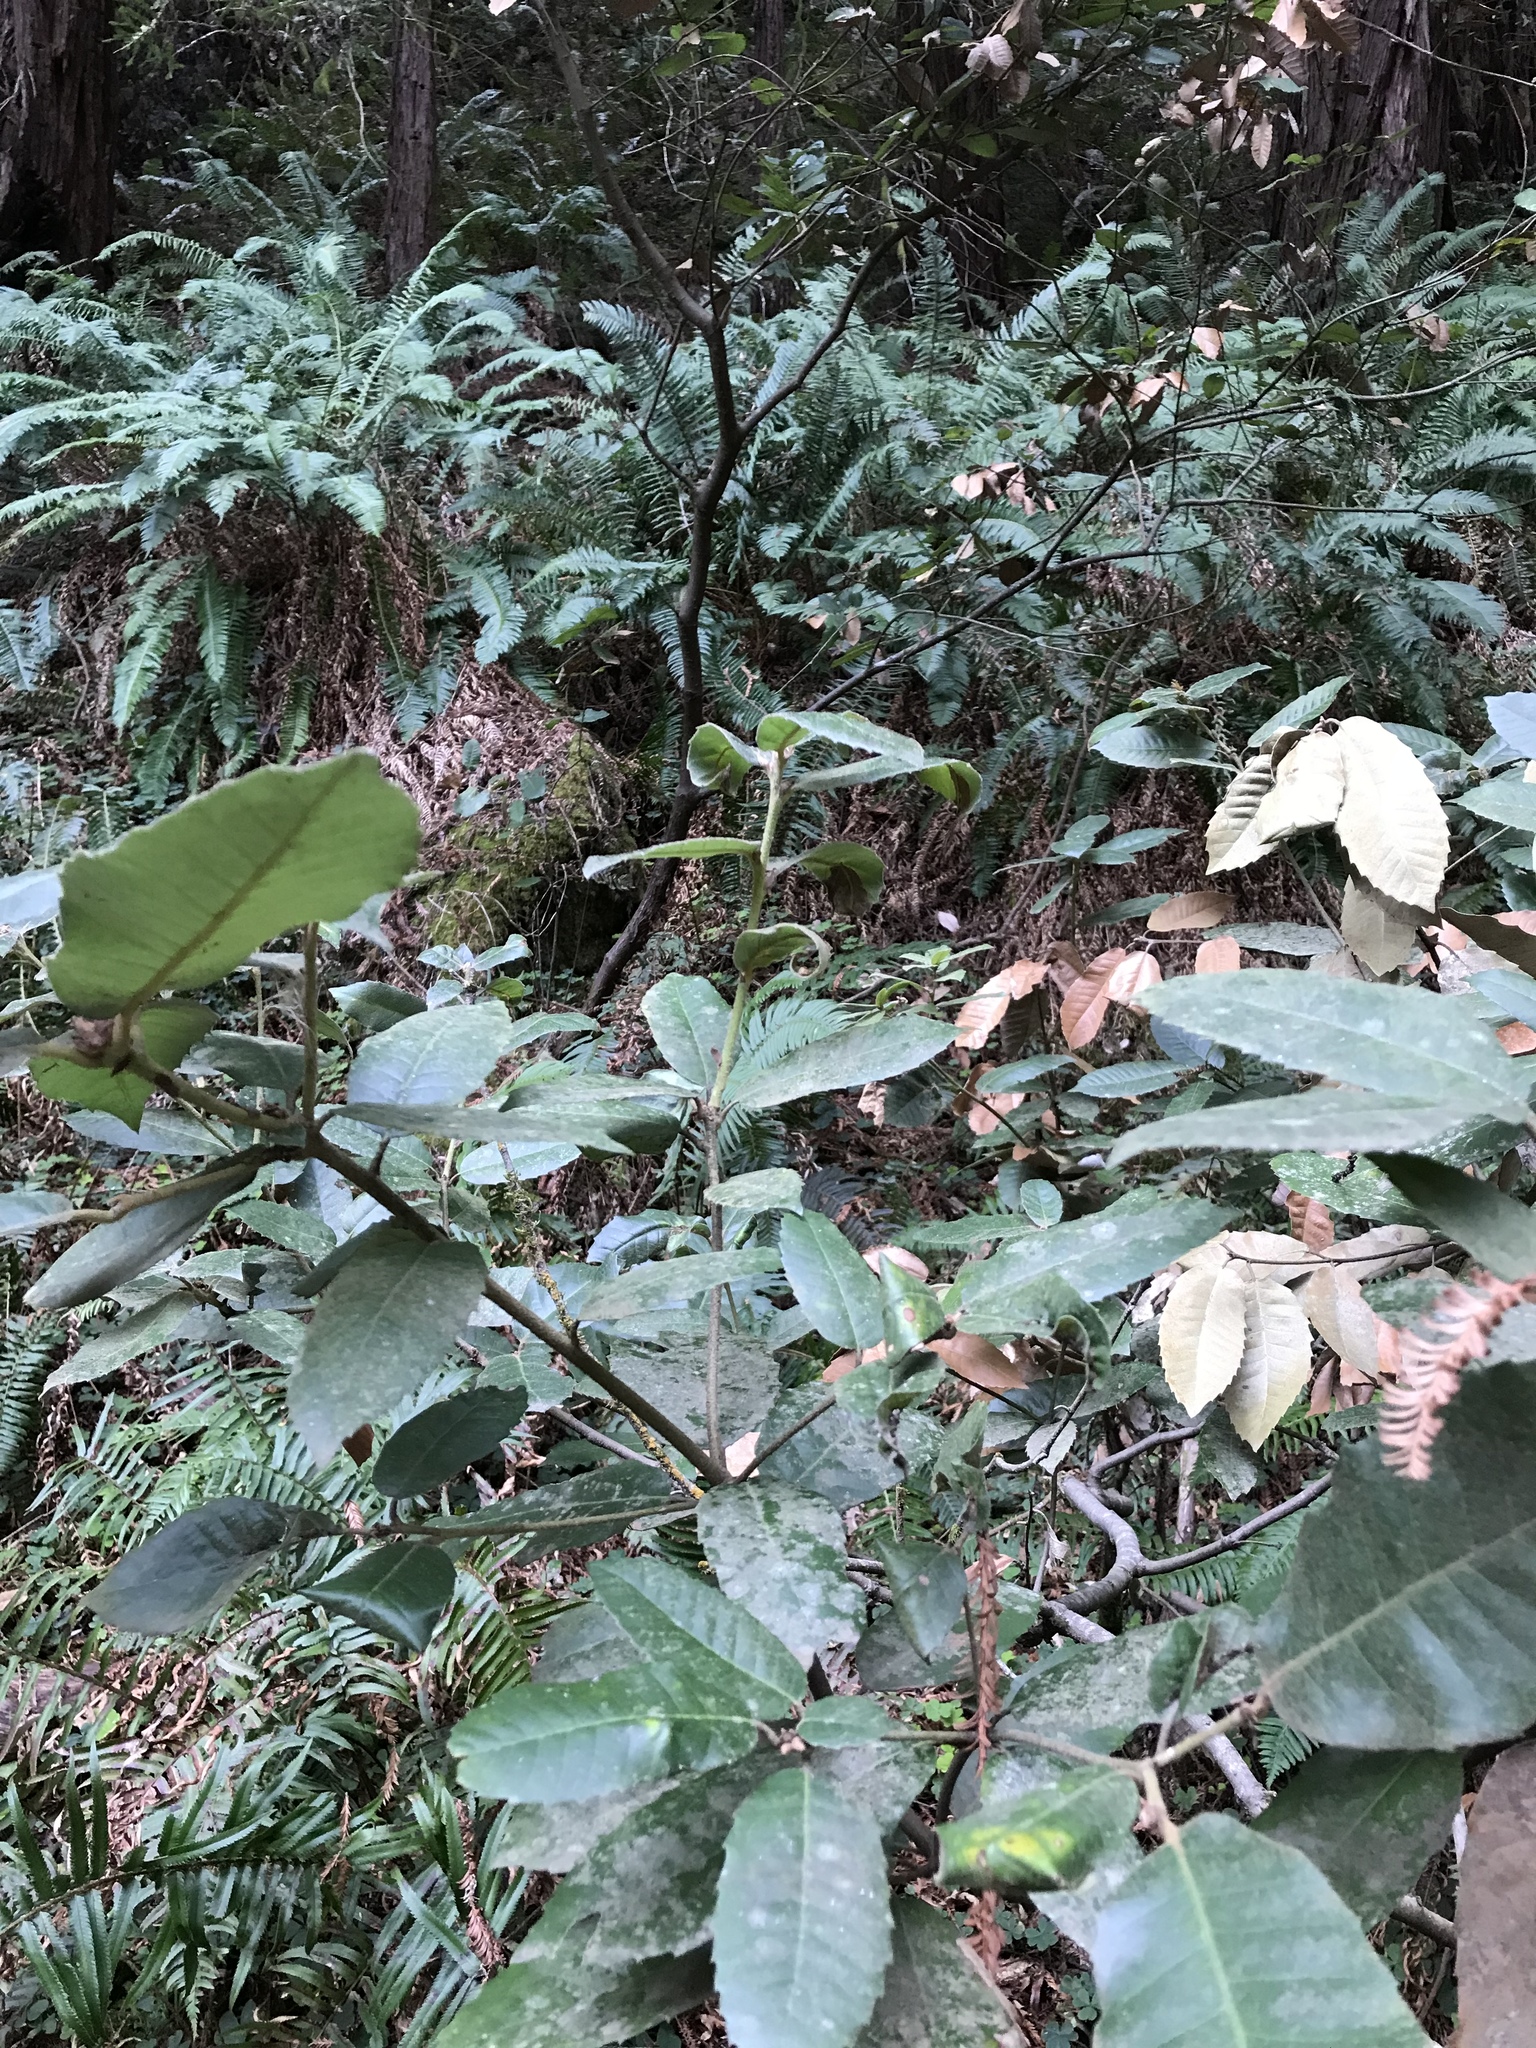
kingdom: Plantae
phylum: Tracheophyta
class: Magnoliopsida
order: Fagales
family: Fagaceae
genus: Notholithocarpus
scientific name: Notholithocarpus densiflorus
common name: Tan bark oak
